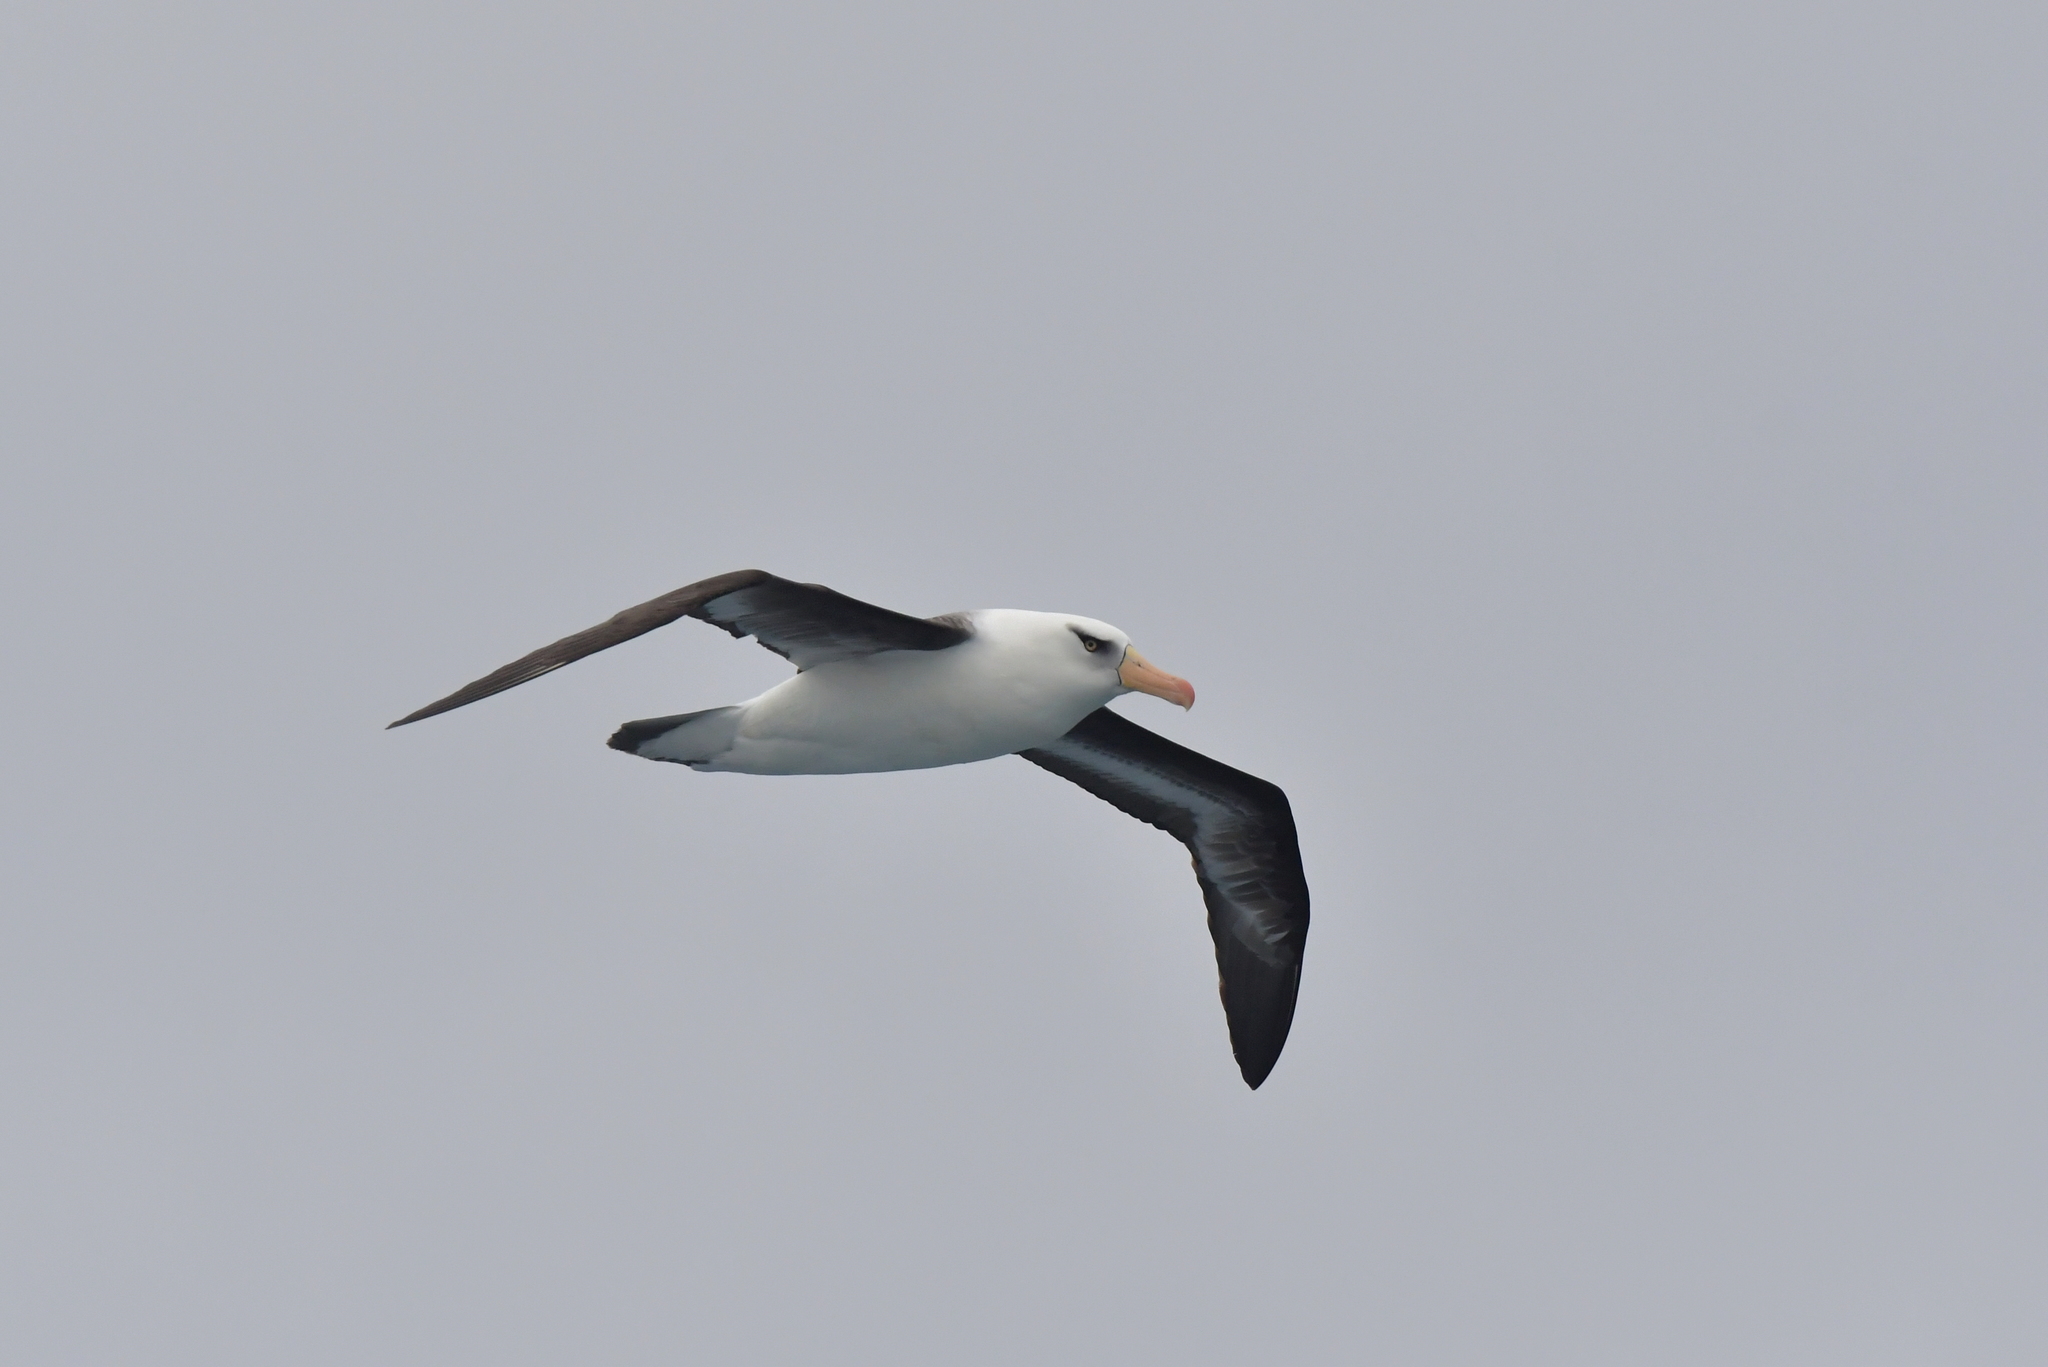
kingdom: Animalia
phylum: Chordata
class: Aves
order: Procellariiformes
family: Diomedeidae
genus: Thalassarche
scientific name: Thalassarche impavida
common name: Campbell albatross
